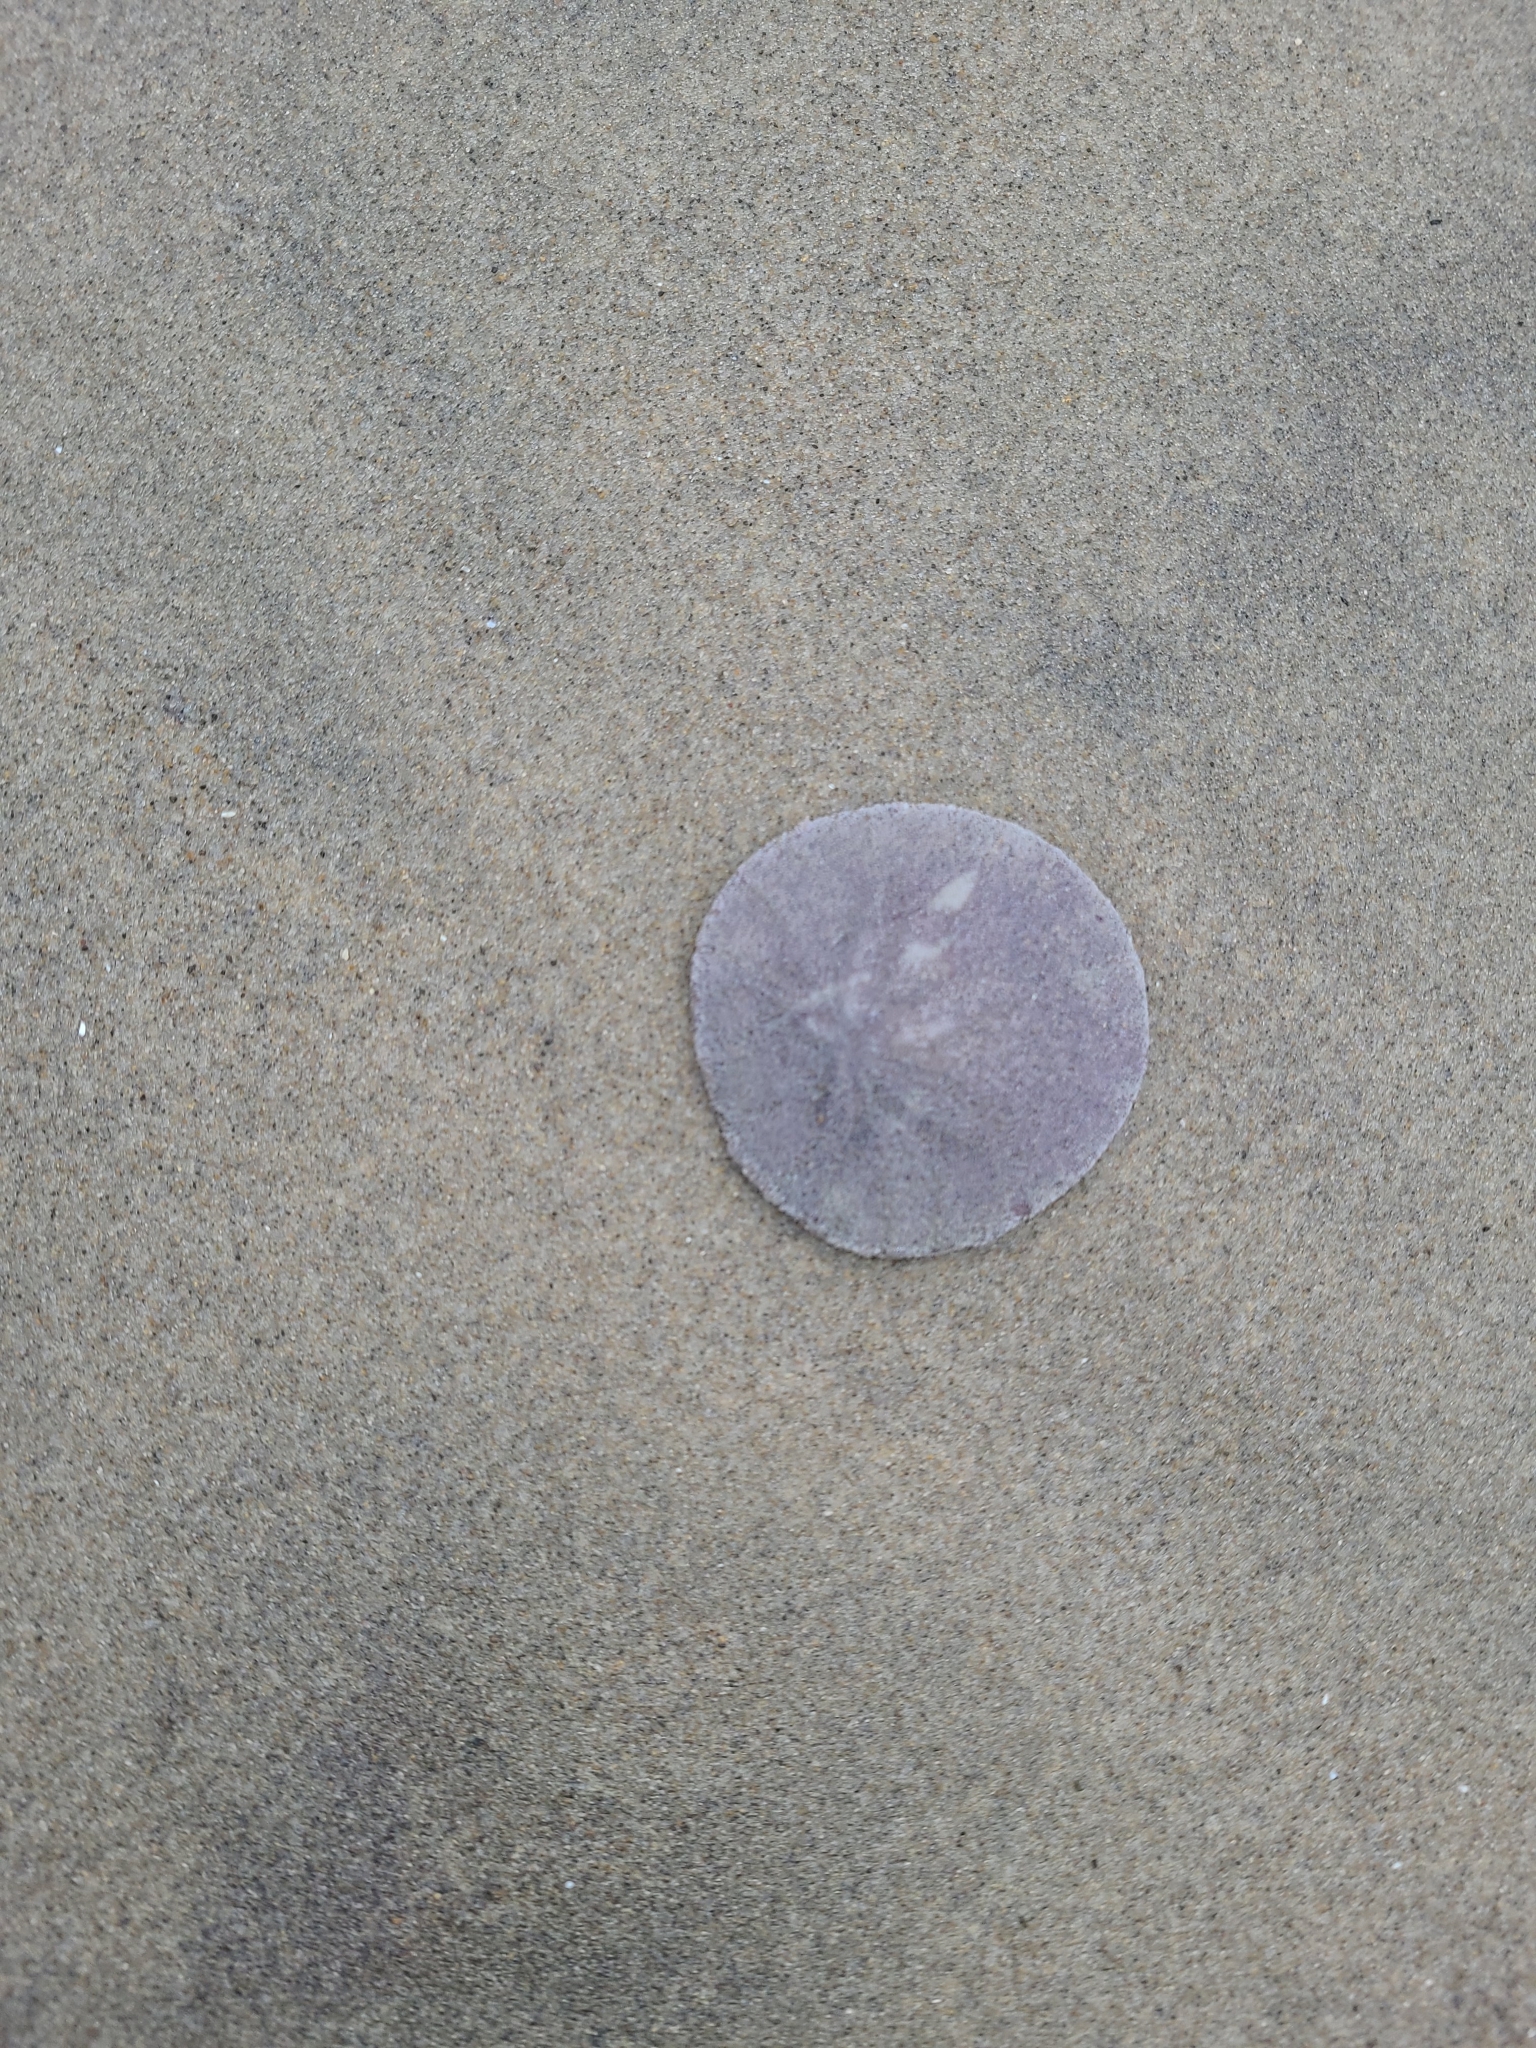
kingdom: Animalia
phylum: Echinodermata
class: Echinoidea
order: Echinolampadacea
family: Dendrasteridae
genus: Dendraster
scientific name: Dendraster excentricus
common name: Eccentric sand dollar sea urchin
